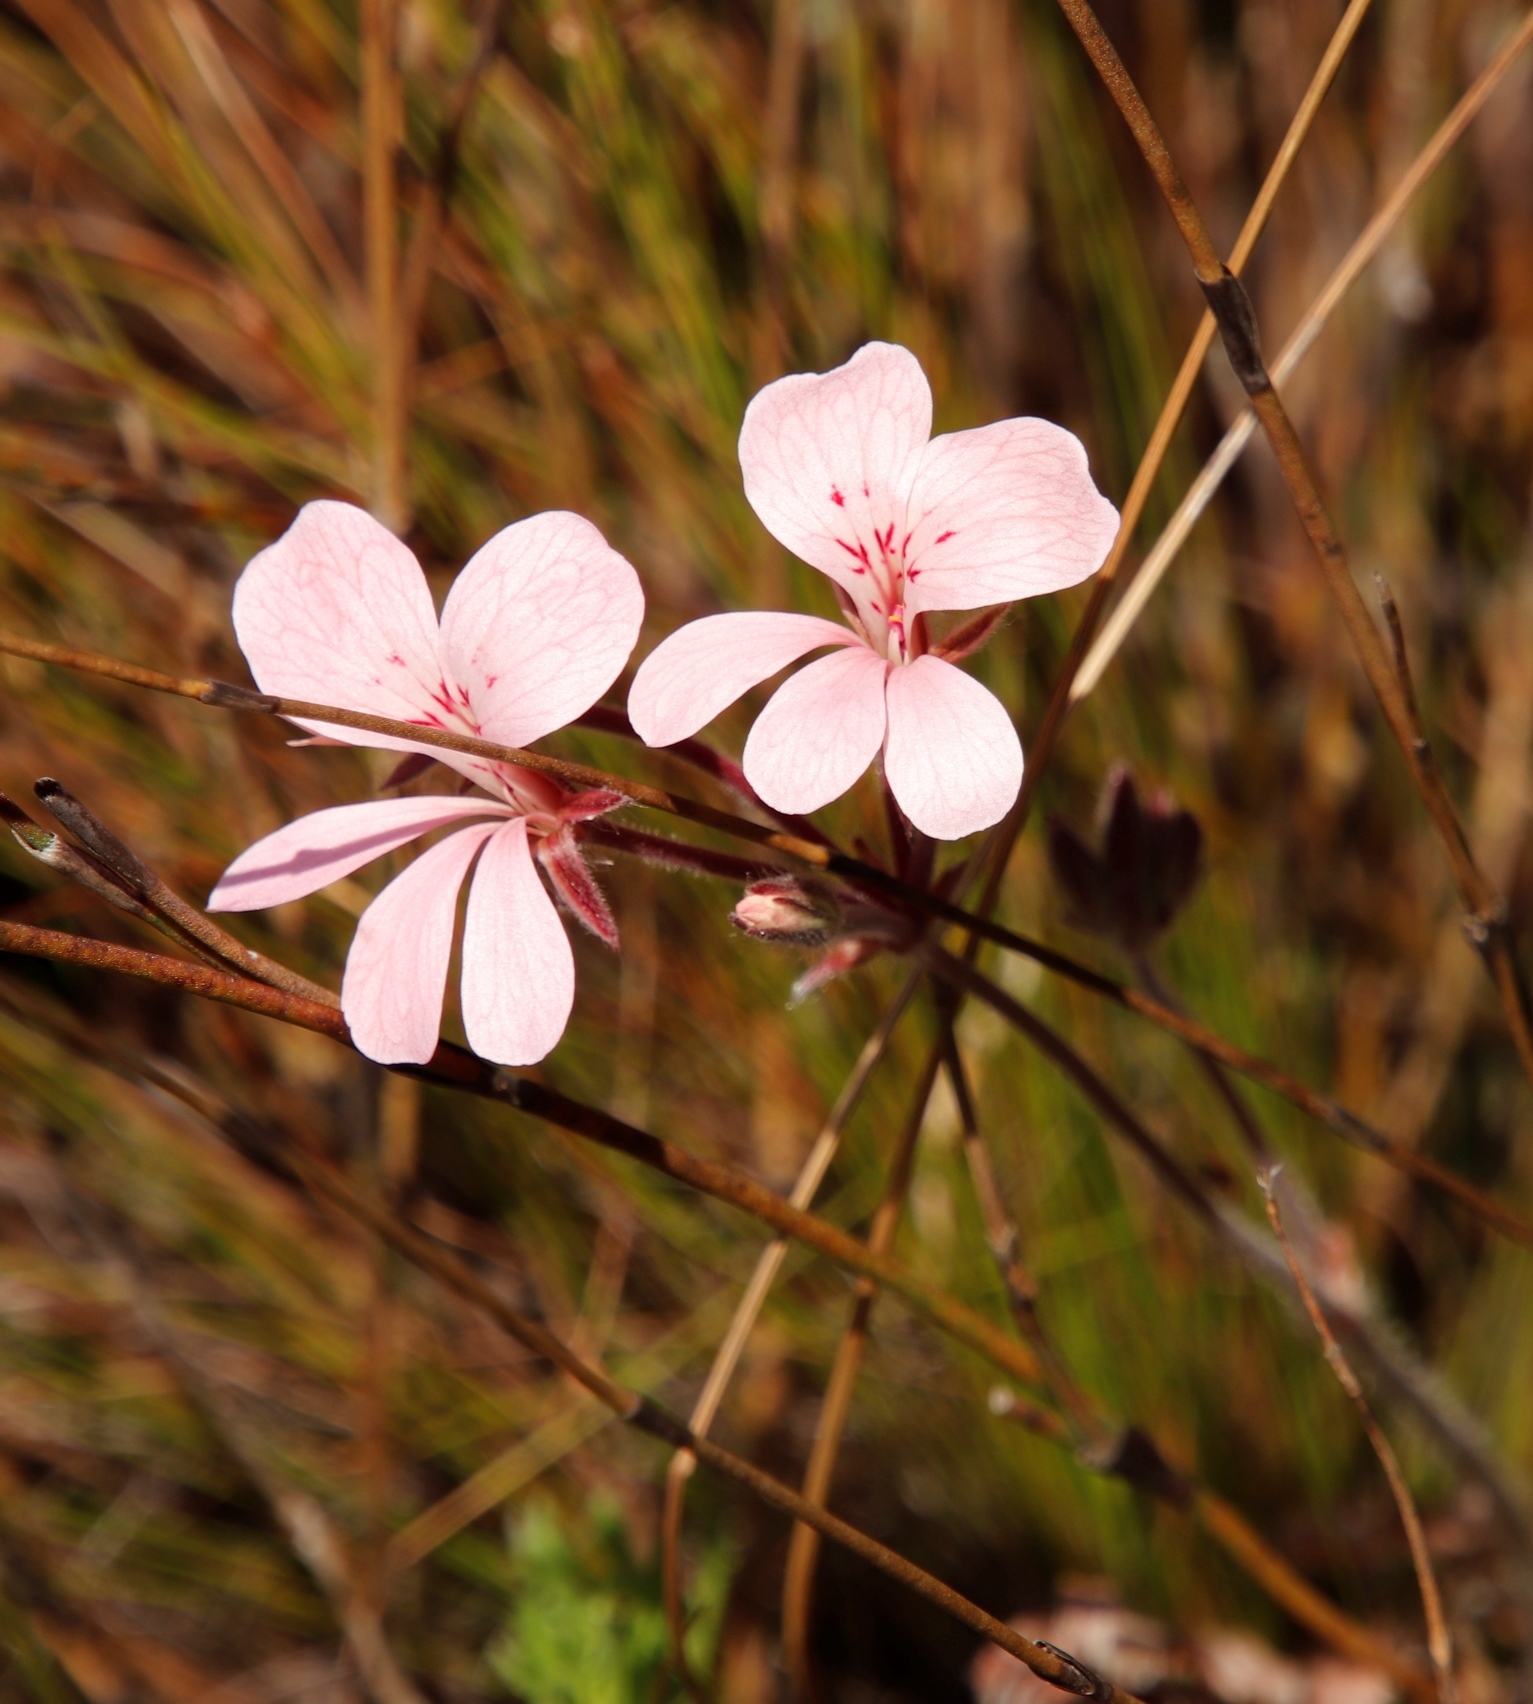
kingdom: Plantae
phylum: Tracheophyta
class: Magnoliopsida
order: Geraniales
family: Geraniaceae
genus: Pelargonium
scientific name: Pelargonium pinnatum
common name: Pinnated pelargonium
